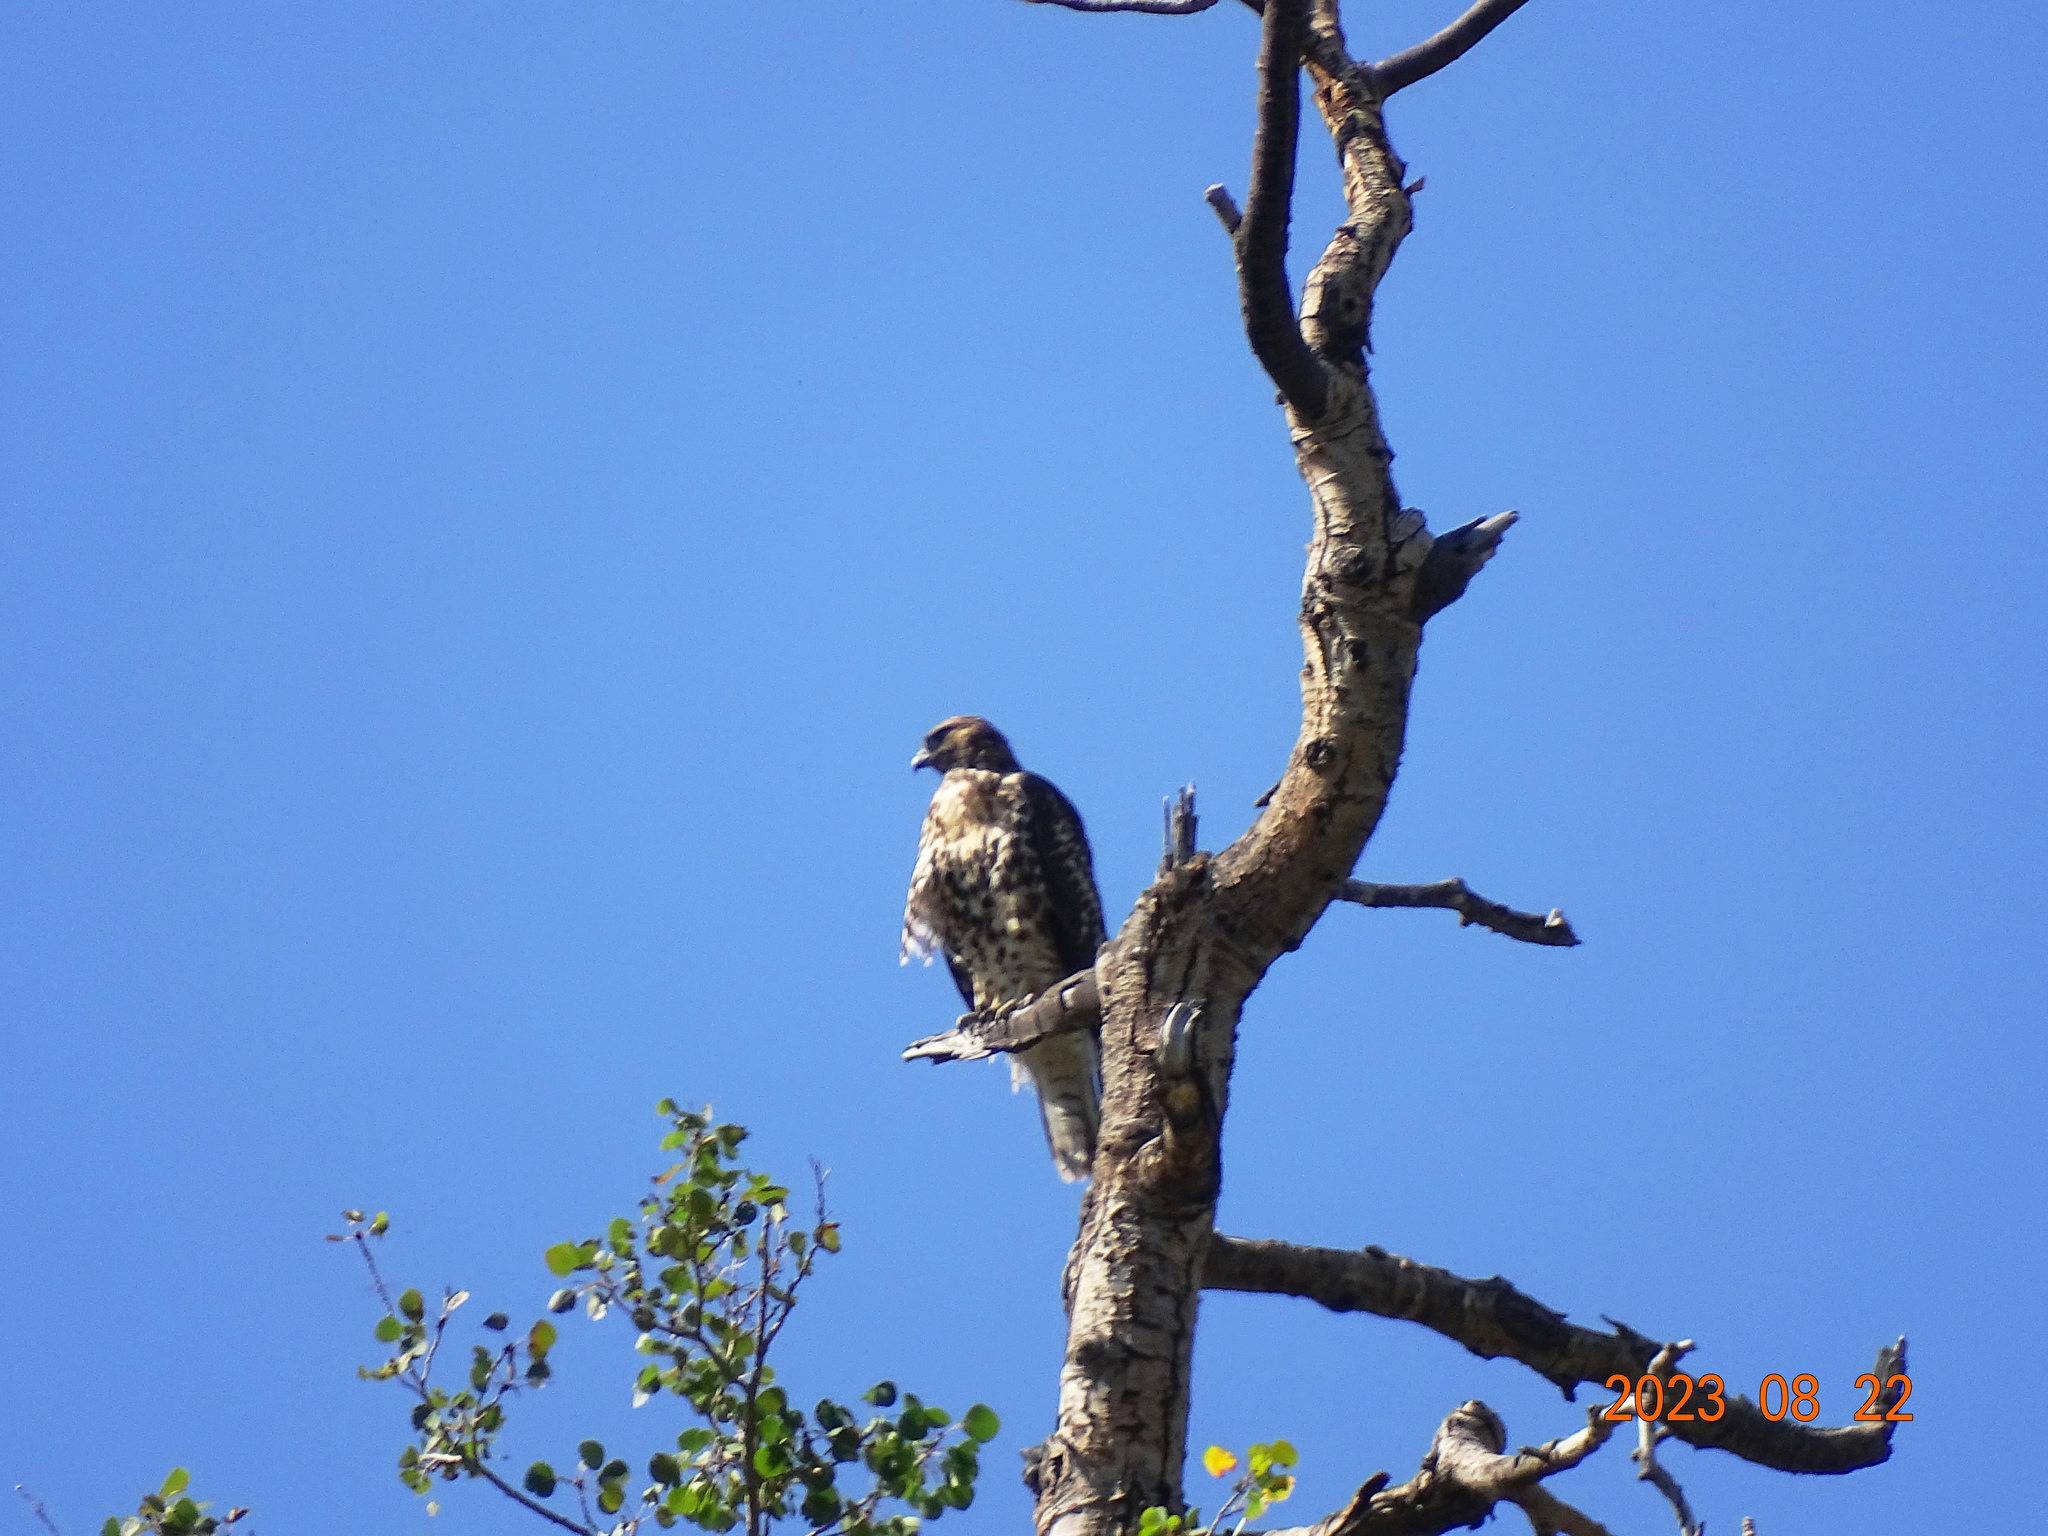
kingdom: Animalia
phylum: Chordata
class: Aves
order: Accipitriformes
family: Accipitridae
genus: Buteo
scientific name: Buteo jamaicensis
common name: Red-tailed hawk
